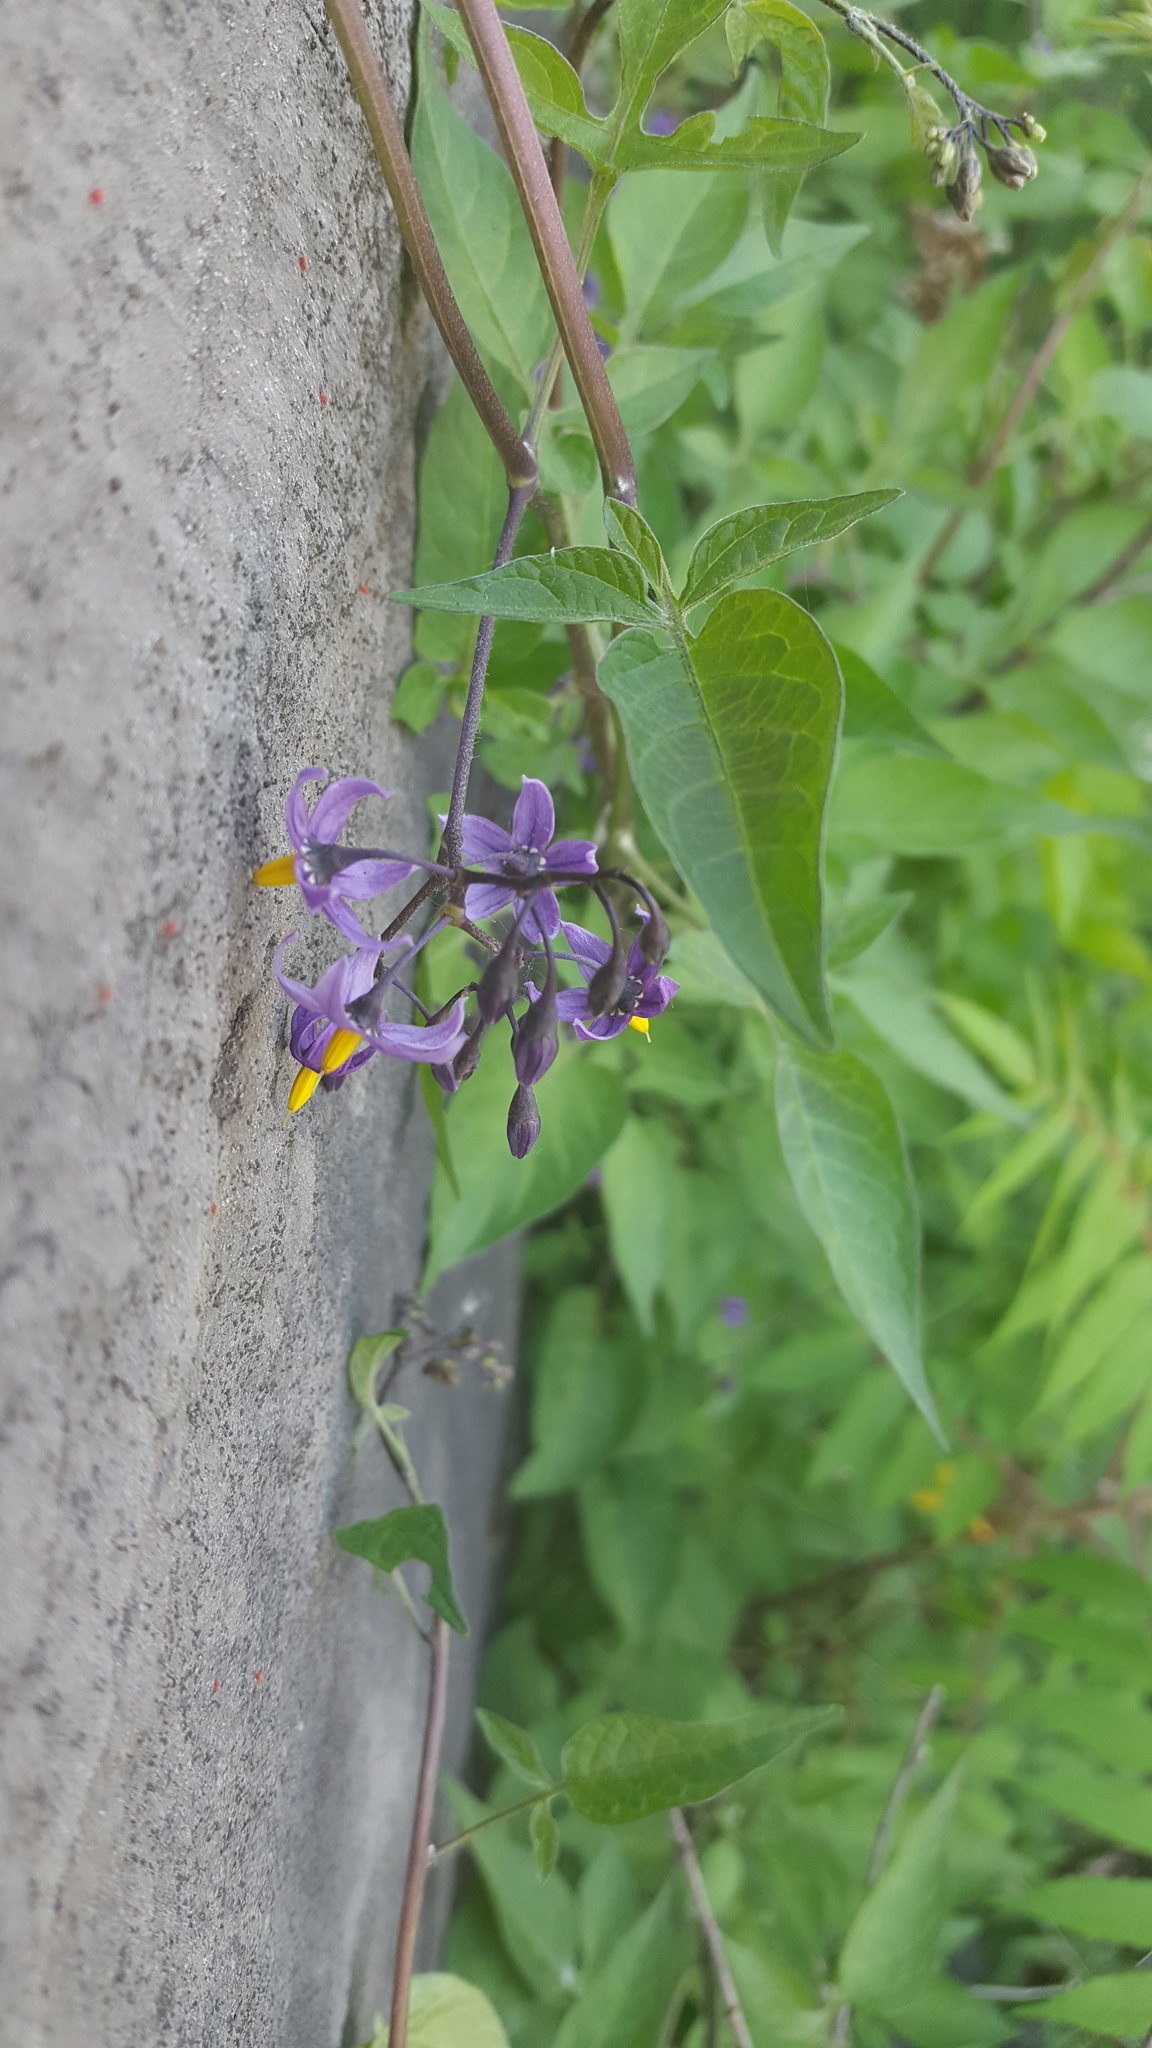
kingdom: Plantae
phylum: Tracheophyta
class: Magnoliopsida
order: Solanales
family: Solanaceae
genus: Solanum
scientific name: Solanum dulcamara
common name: Climbing nightshade
